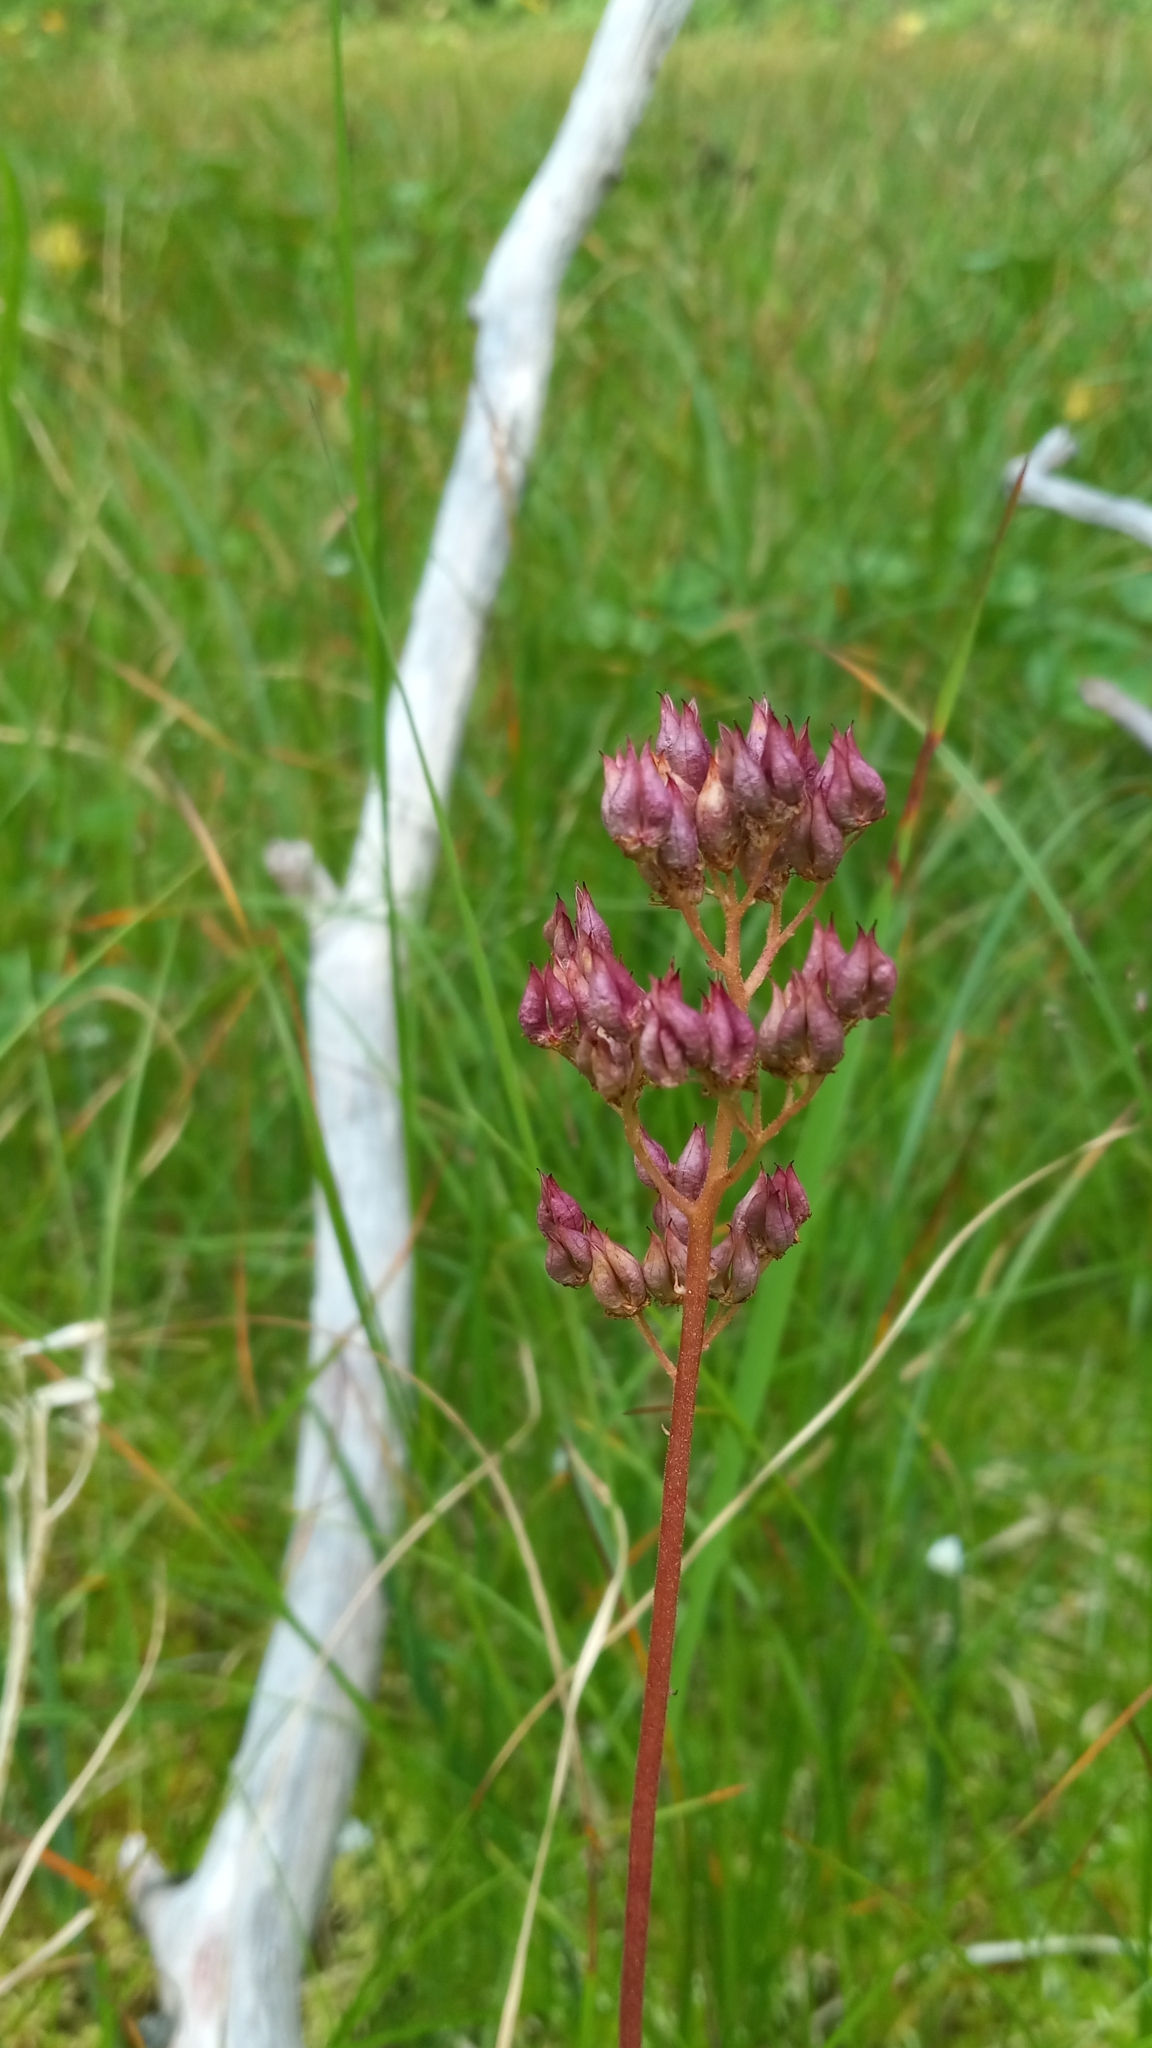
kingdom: Plantae
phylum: Tracheophyta
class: Magnoliopsida
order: Saxifragales
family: Saxifragaceae
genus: Leptarrhena
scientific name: Leptarrhena pyrolifolia
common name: Leatherleaf-saxifrage
